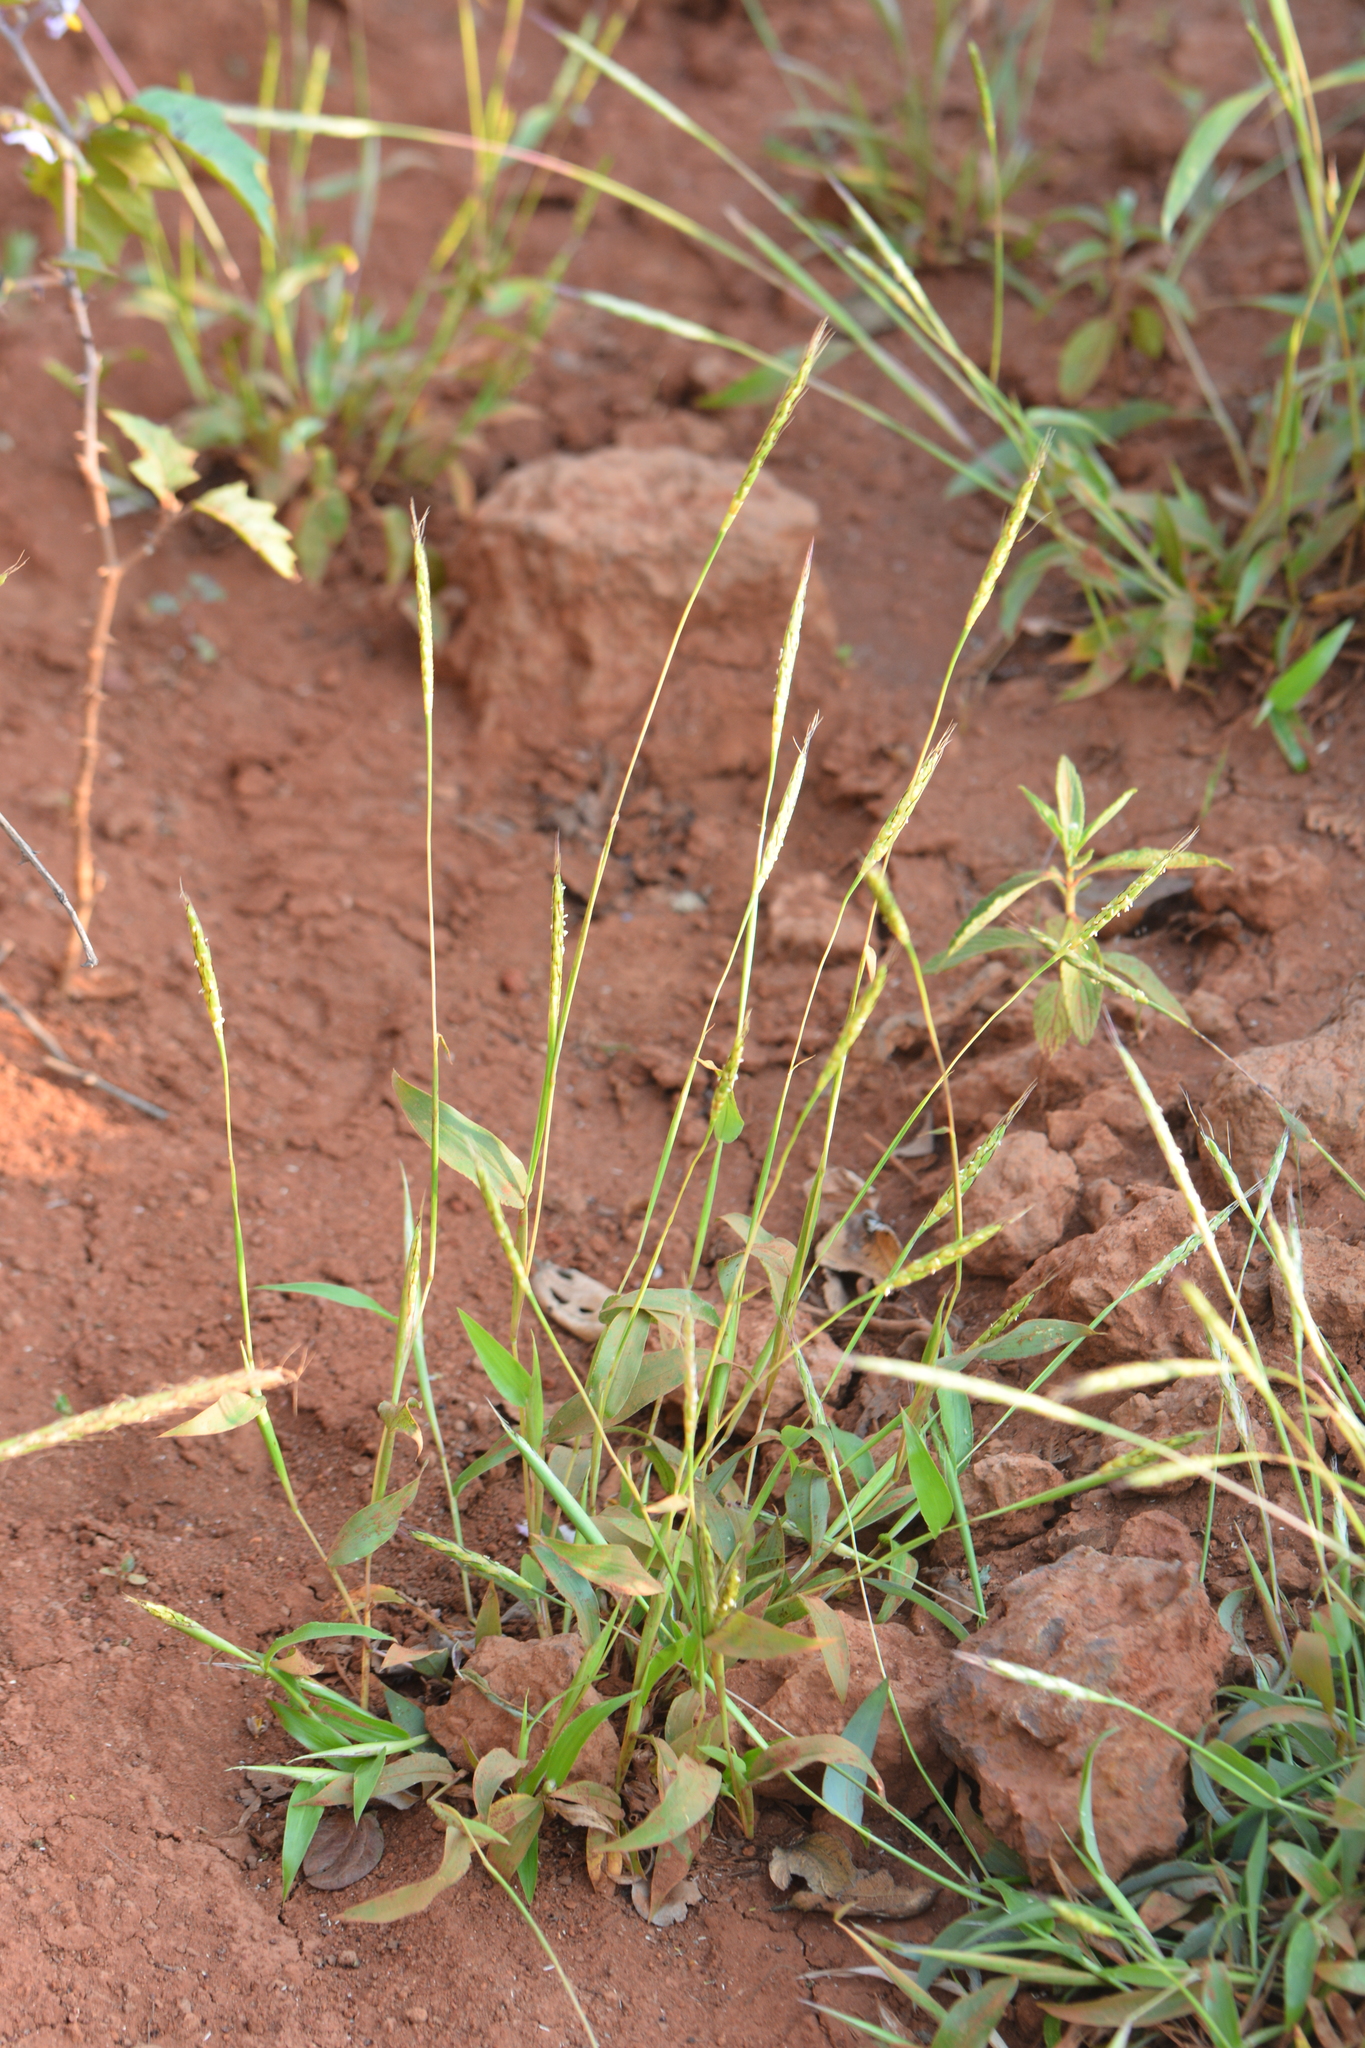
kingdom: Plantae
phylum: Tracheophyta
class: Liliopsida
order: Poales
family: Poaceae
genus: Ischaemum
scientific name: Ischaemum impressum
